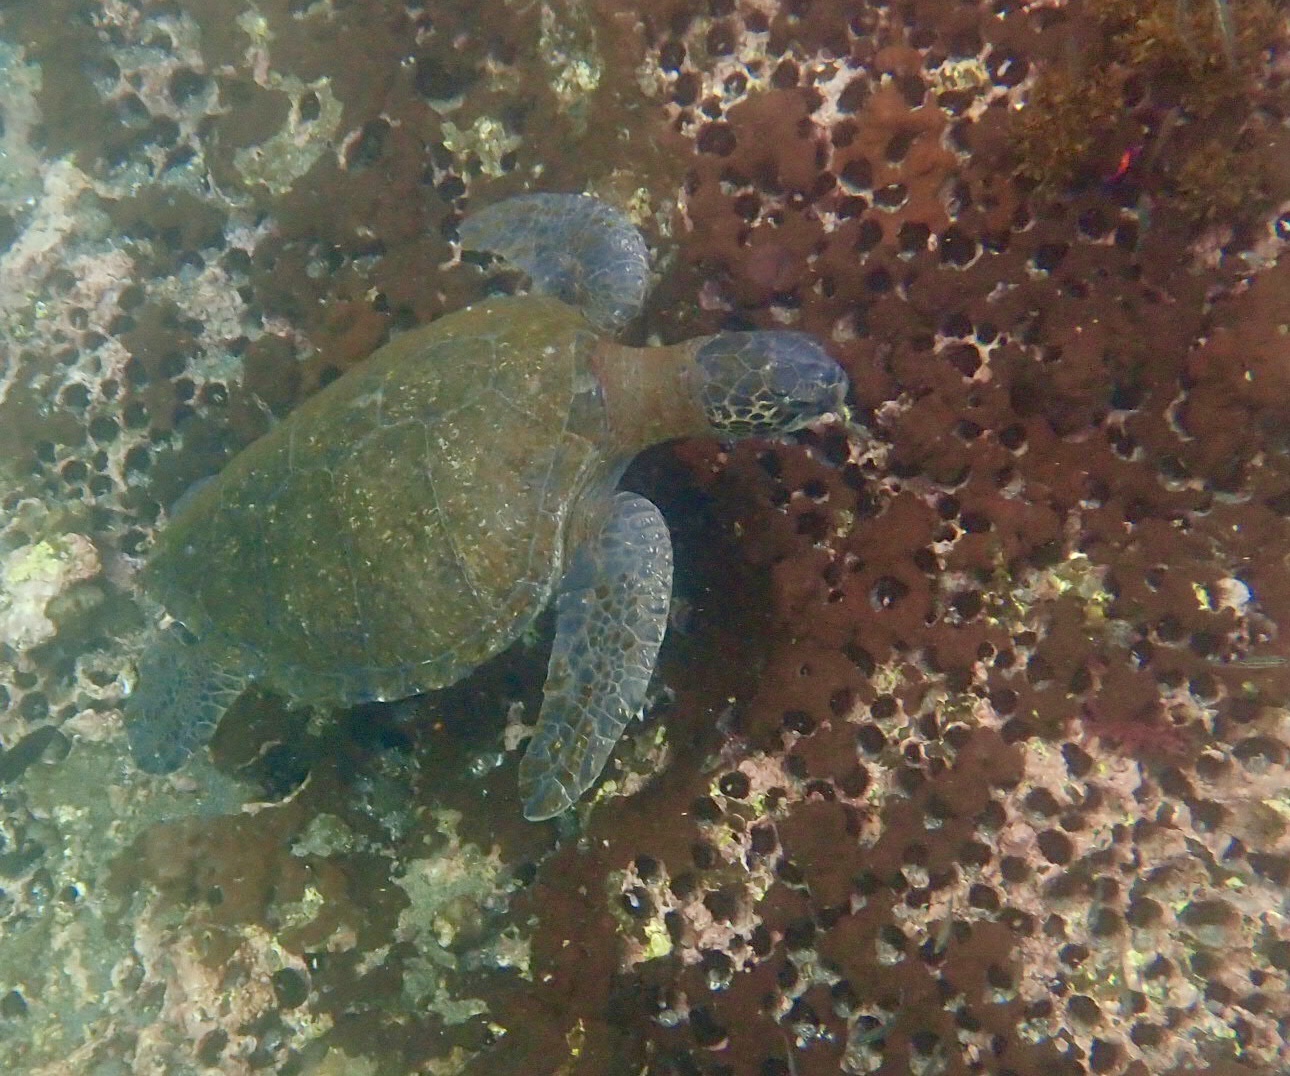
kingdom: Animalia
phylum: Chordata
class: Testudines
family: Cheloniidae
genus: Chelonia
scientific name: Chelonia mydas
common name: Green turtle
